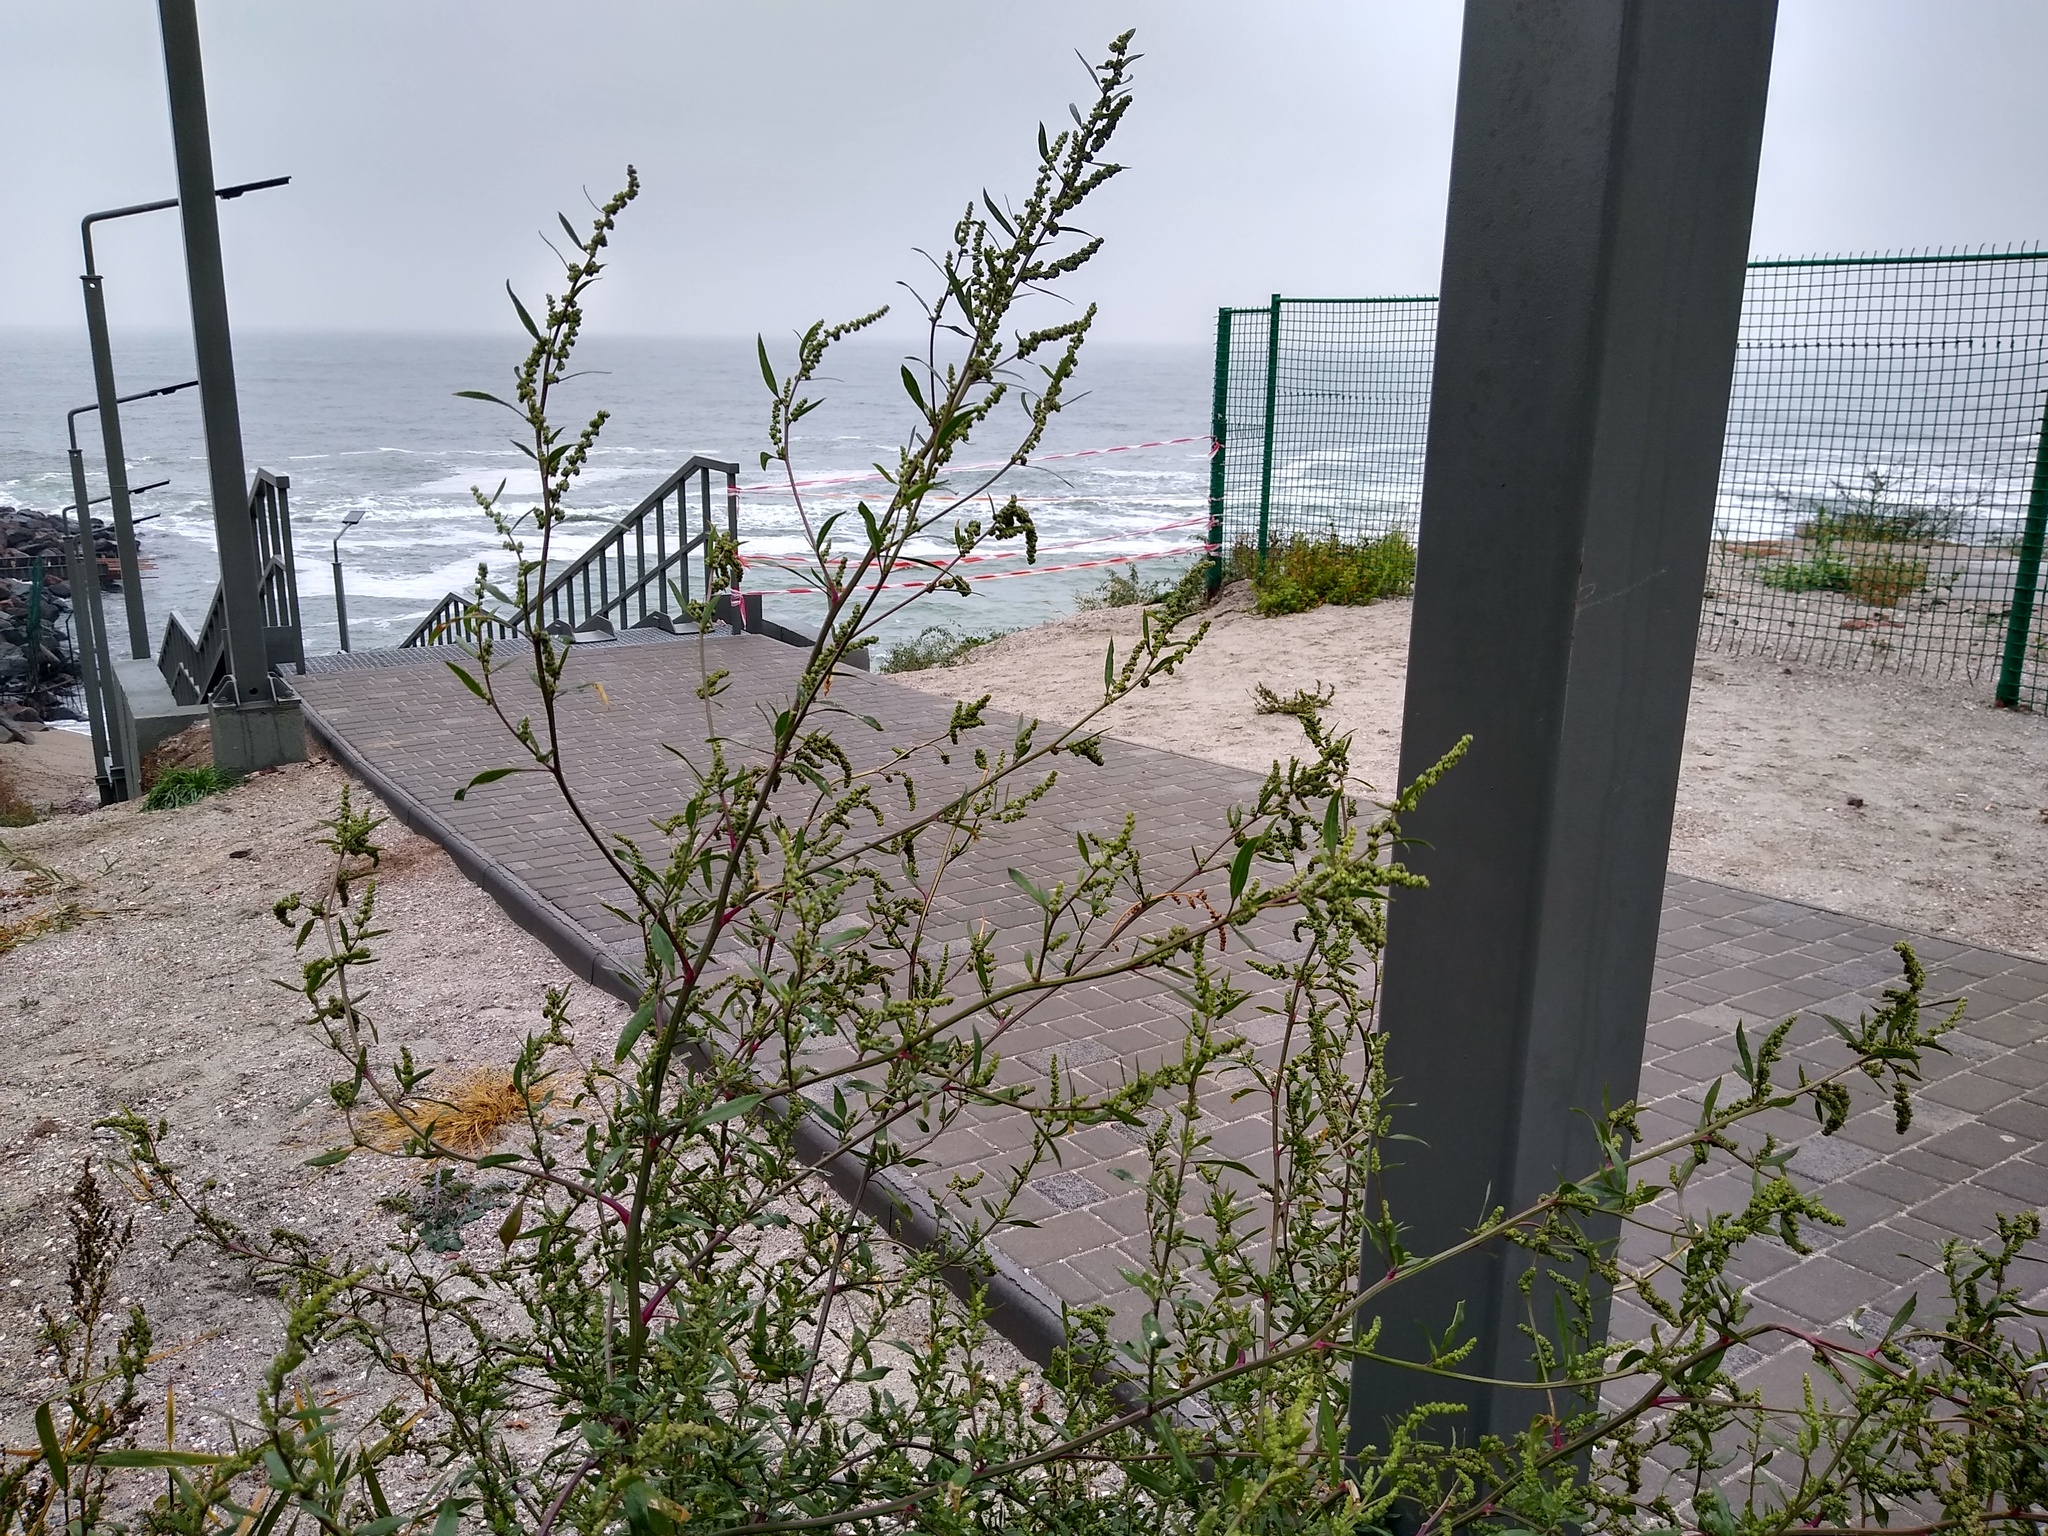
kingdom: Plantae
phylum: Tracheophyta
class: Magnoliopsida
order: Caryophyllales
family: Amaranthaceae
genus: Chenopodium
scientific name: Chenopodium betaceum
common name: Striped goosefoot
